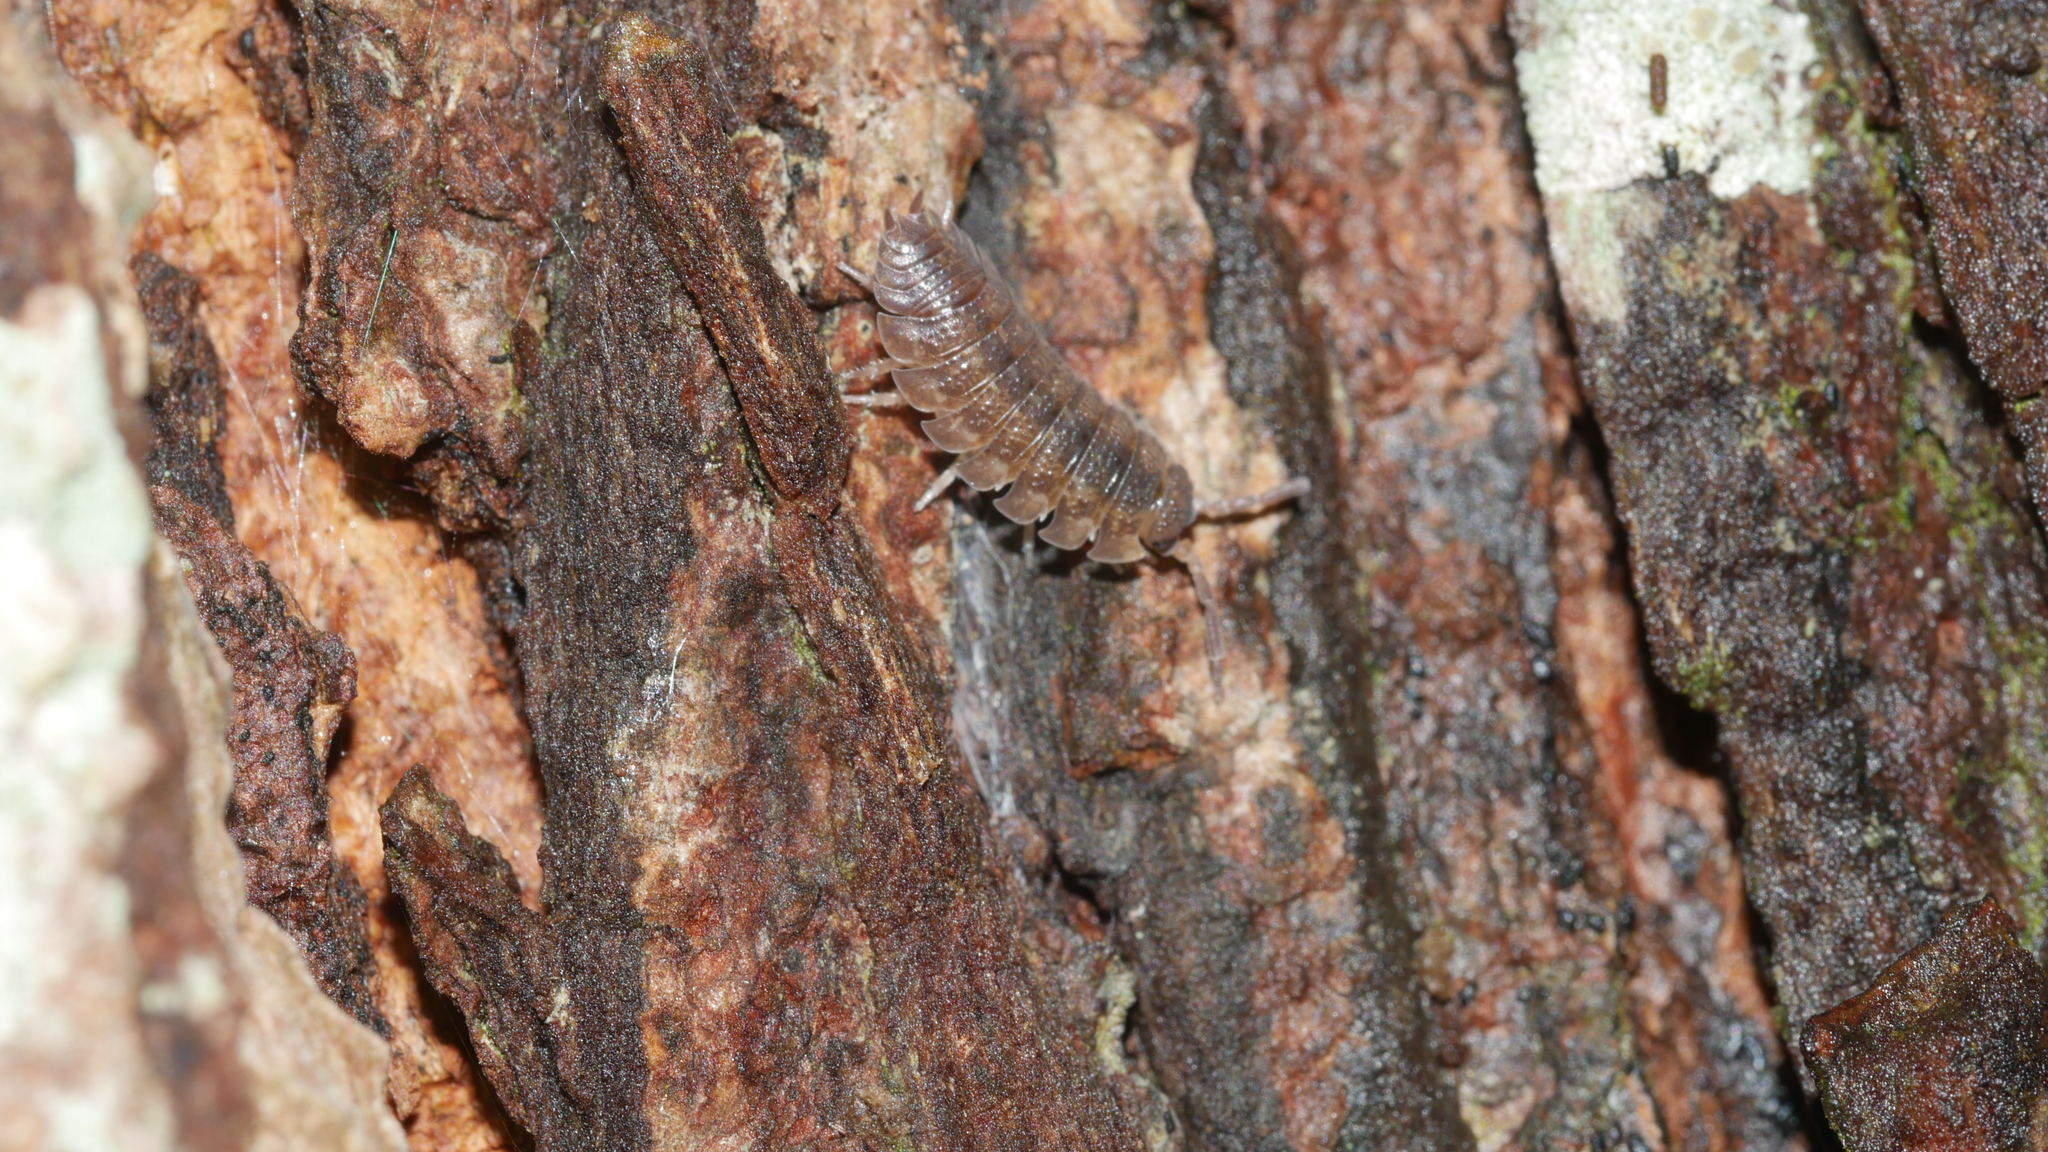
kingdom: Animalia
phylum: Arthropoda
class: Malacostraca
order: Isopoda
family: Porcellionidae
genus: Porcellio
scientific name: Porcellio scaber
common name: Common rough woodlouse
